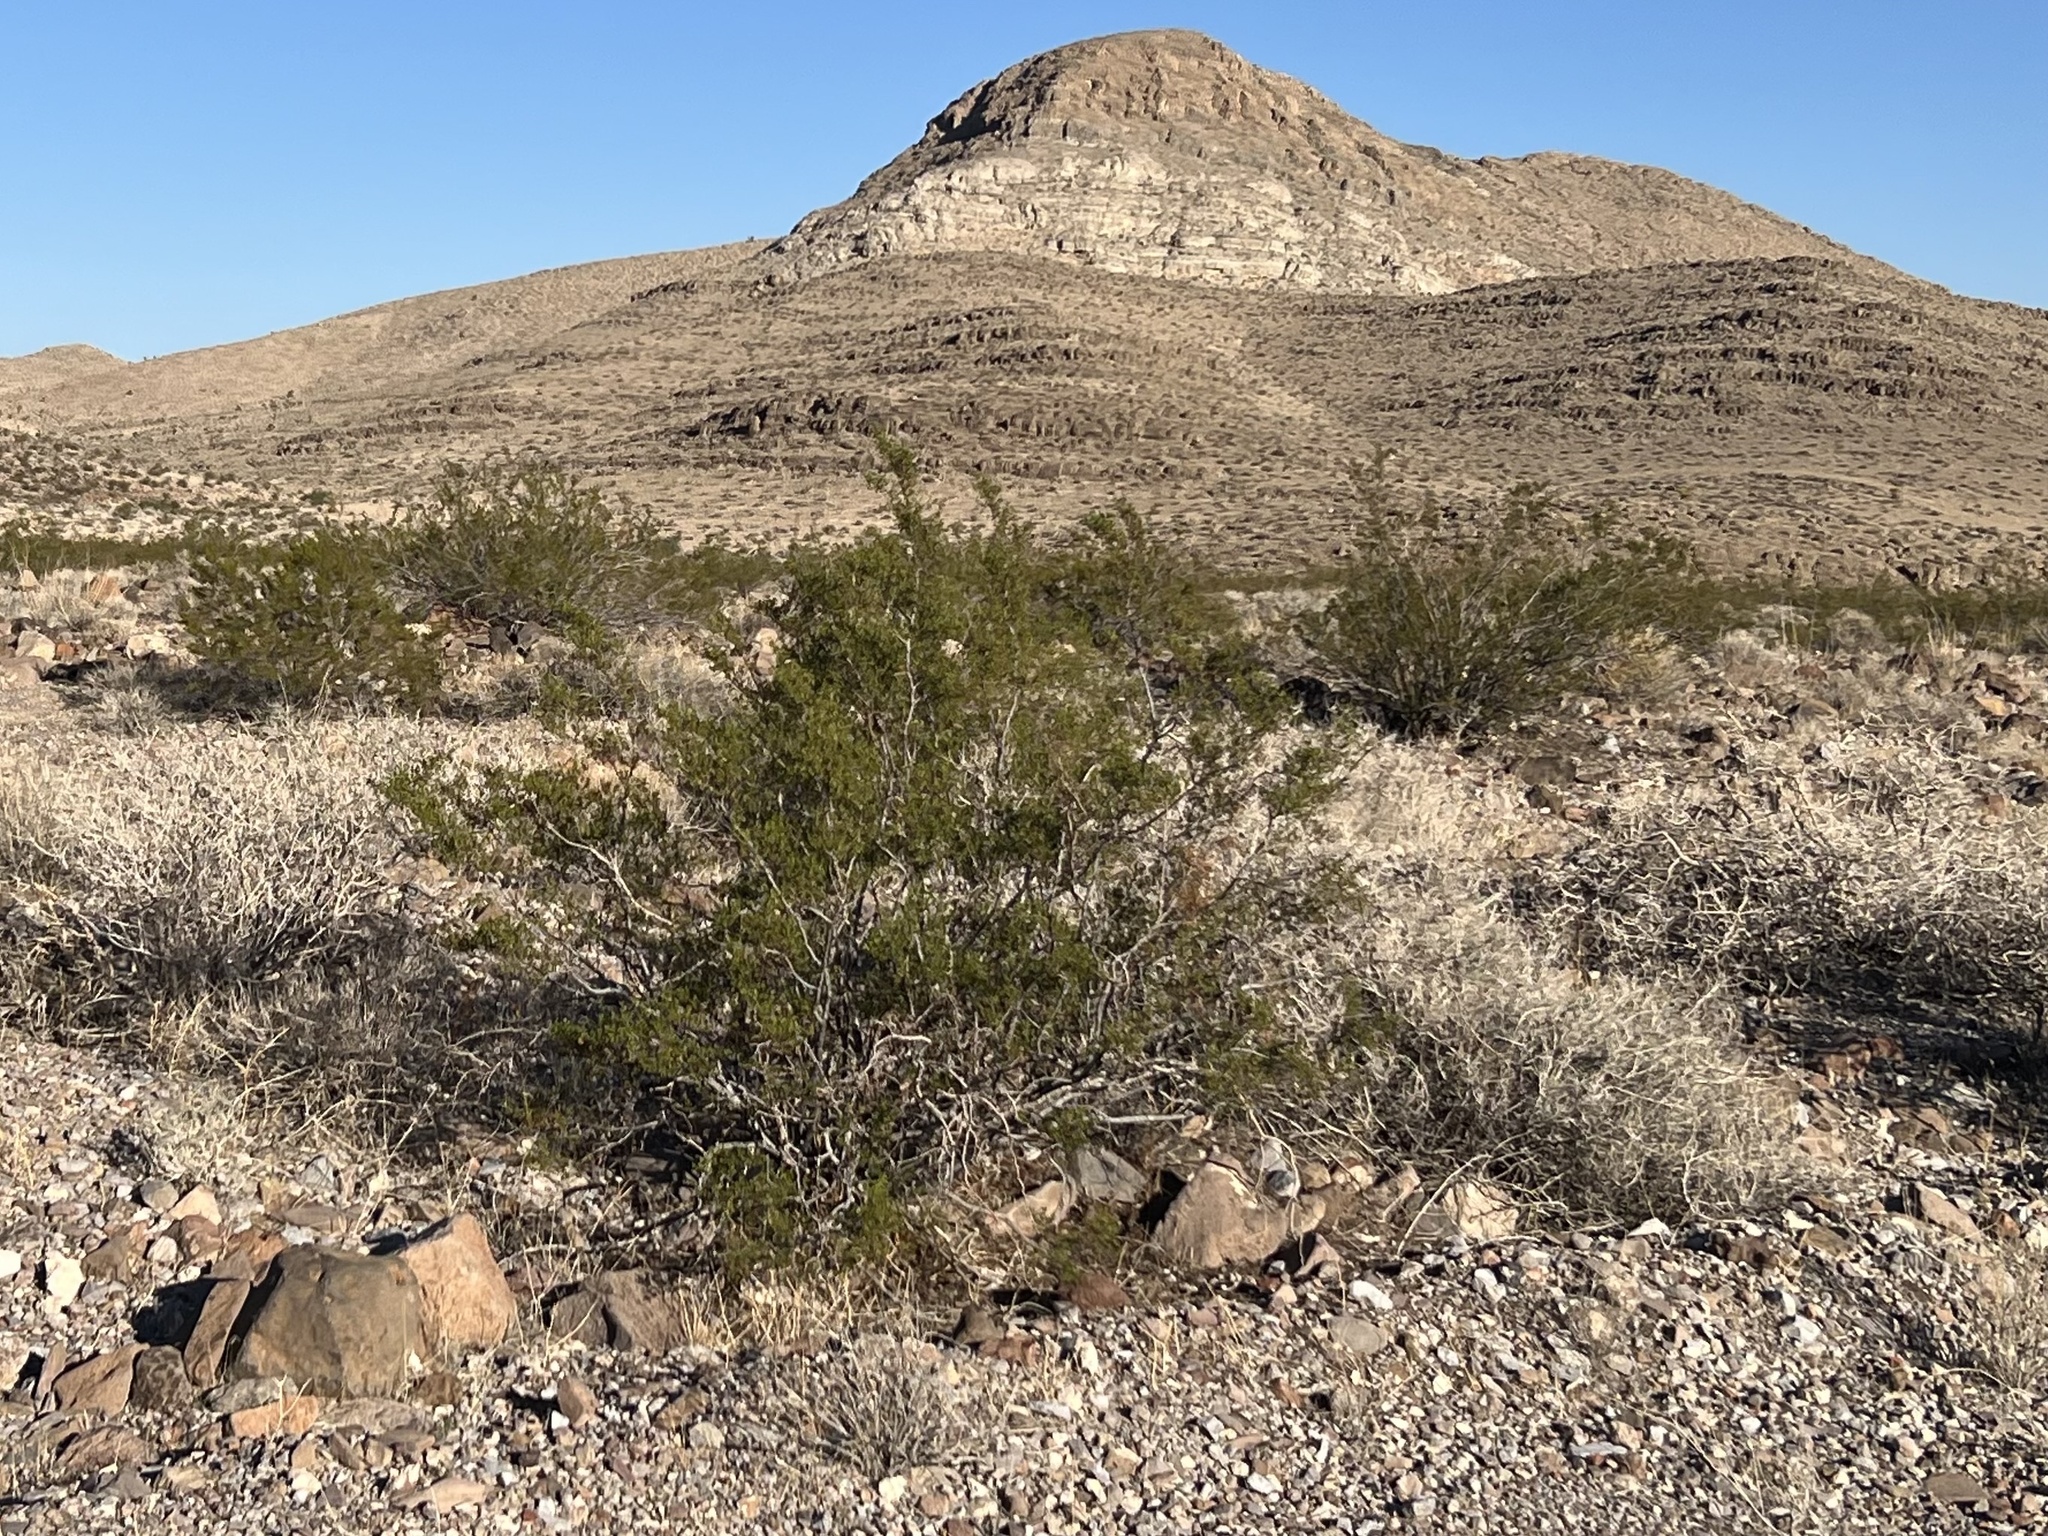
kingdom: Plantae
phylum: Tracheophyta
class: Magnoliopsida
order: Zygophyllales
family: Zygophyllaceae
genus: Larrea
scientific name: Larrea tridentata
